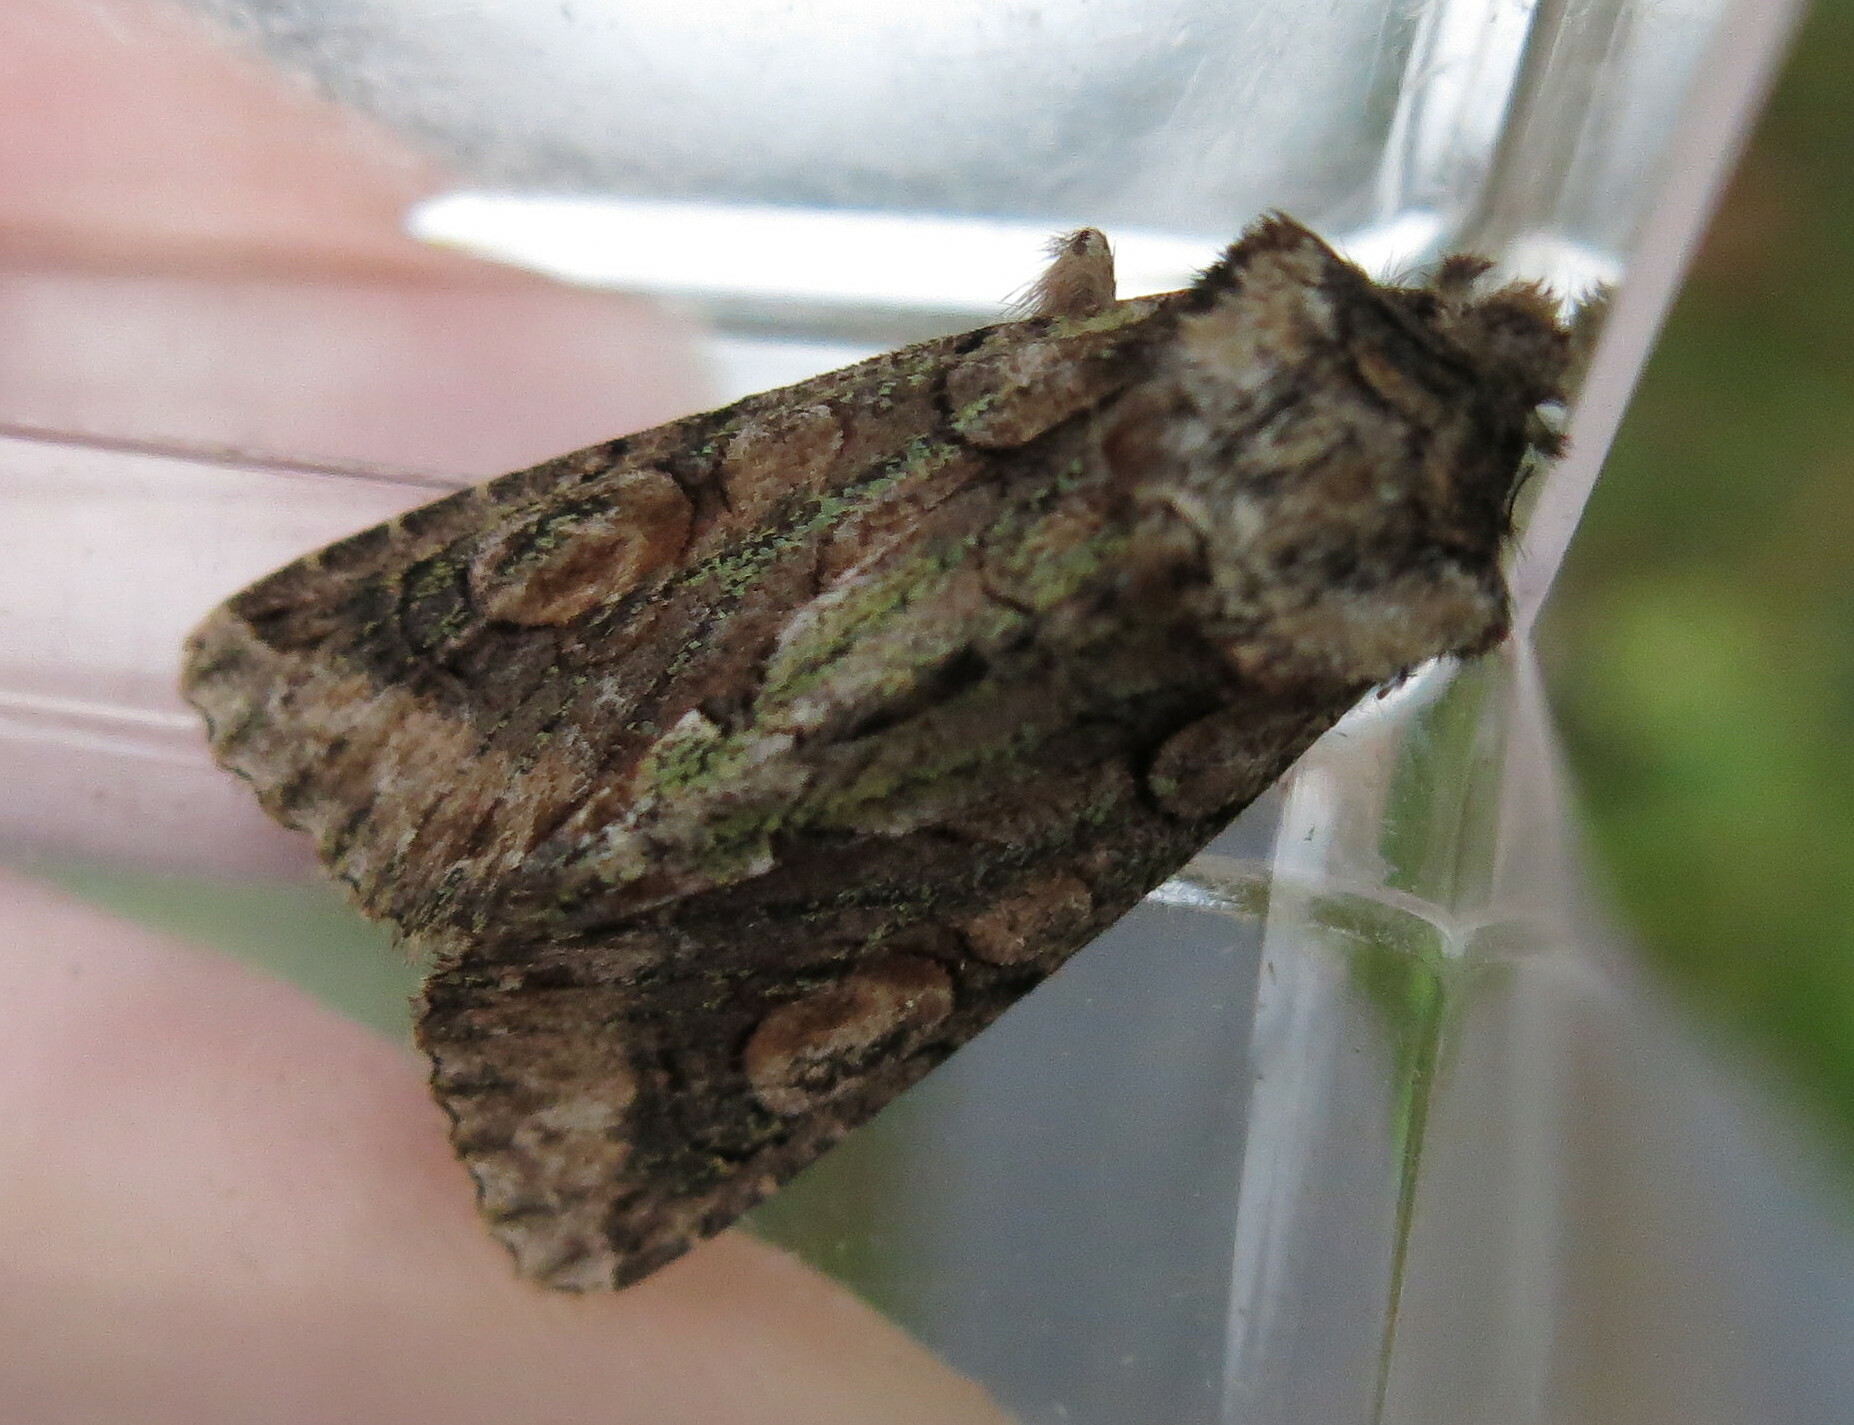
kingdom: Animalia
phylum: Arthropoda
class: Insecta
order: Lepidoptera
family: Noctuidae
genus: Allophyes
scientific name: Allophyes oxyacanthae
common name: Green-brindled crescent
